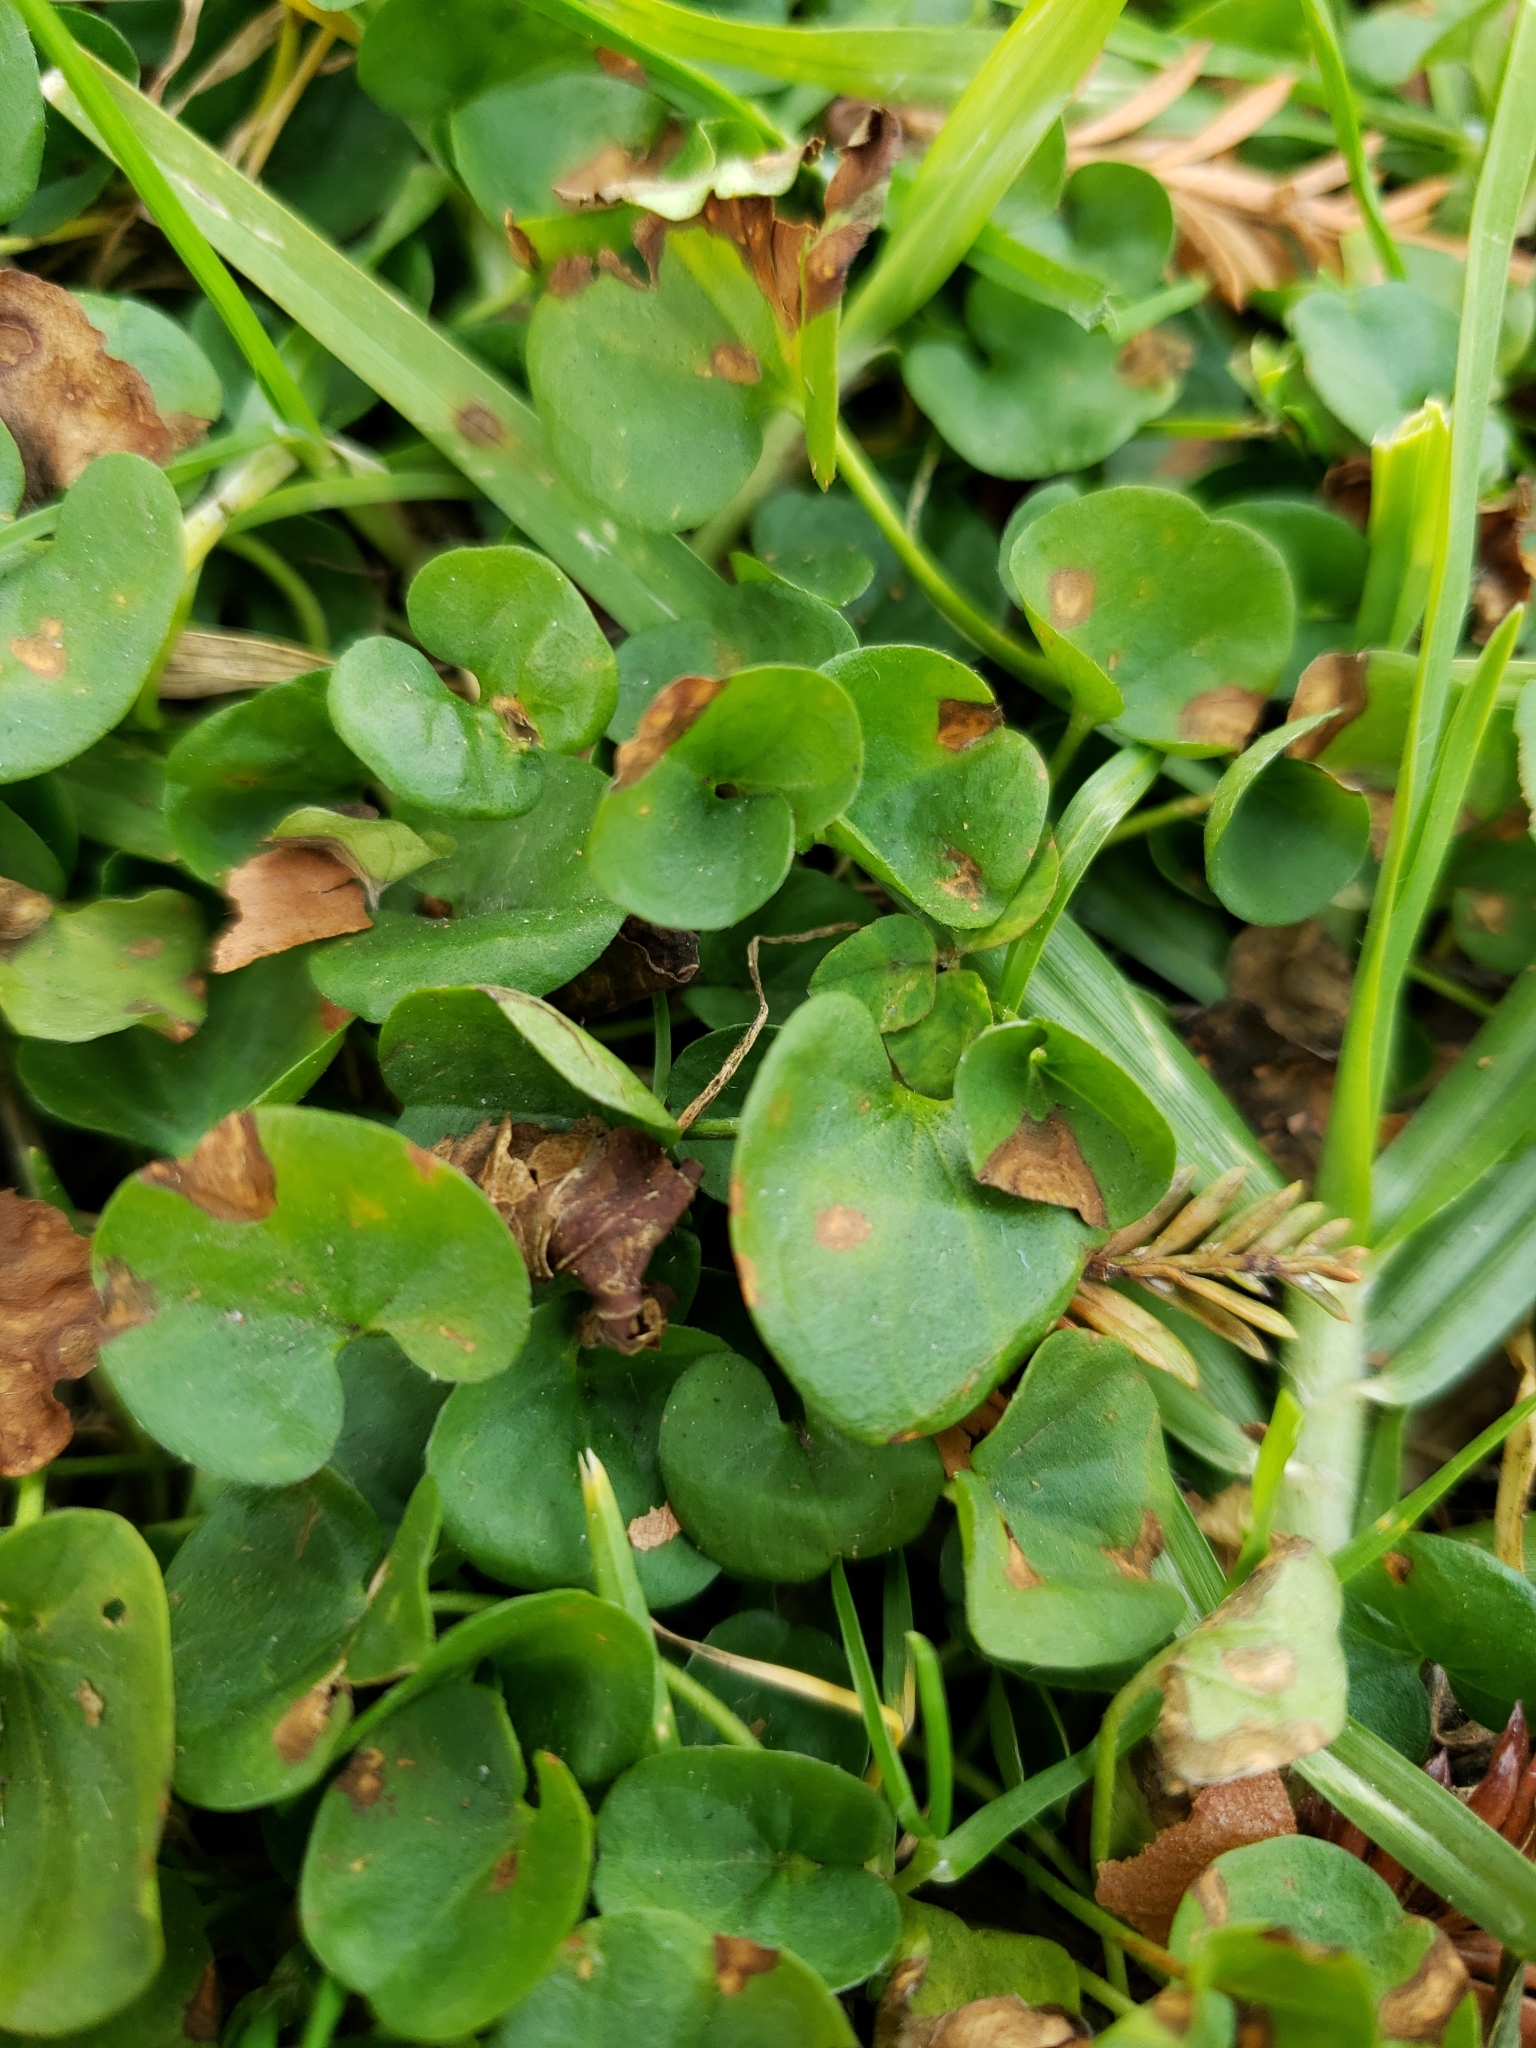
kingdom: Plantae
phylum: Tracheophyta
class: Magnoliopsida
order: Solanales
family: Convolvulaceae
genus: Dichondra
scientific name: Dichondra micrantha
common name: Kidneyweed
